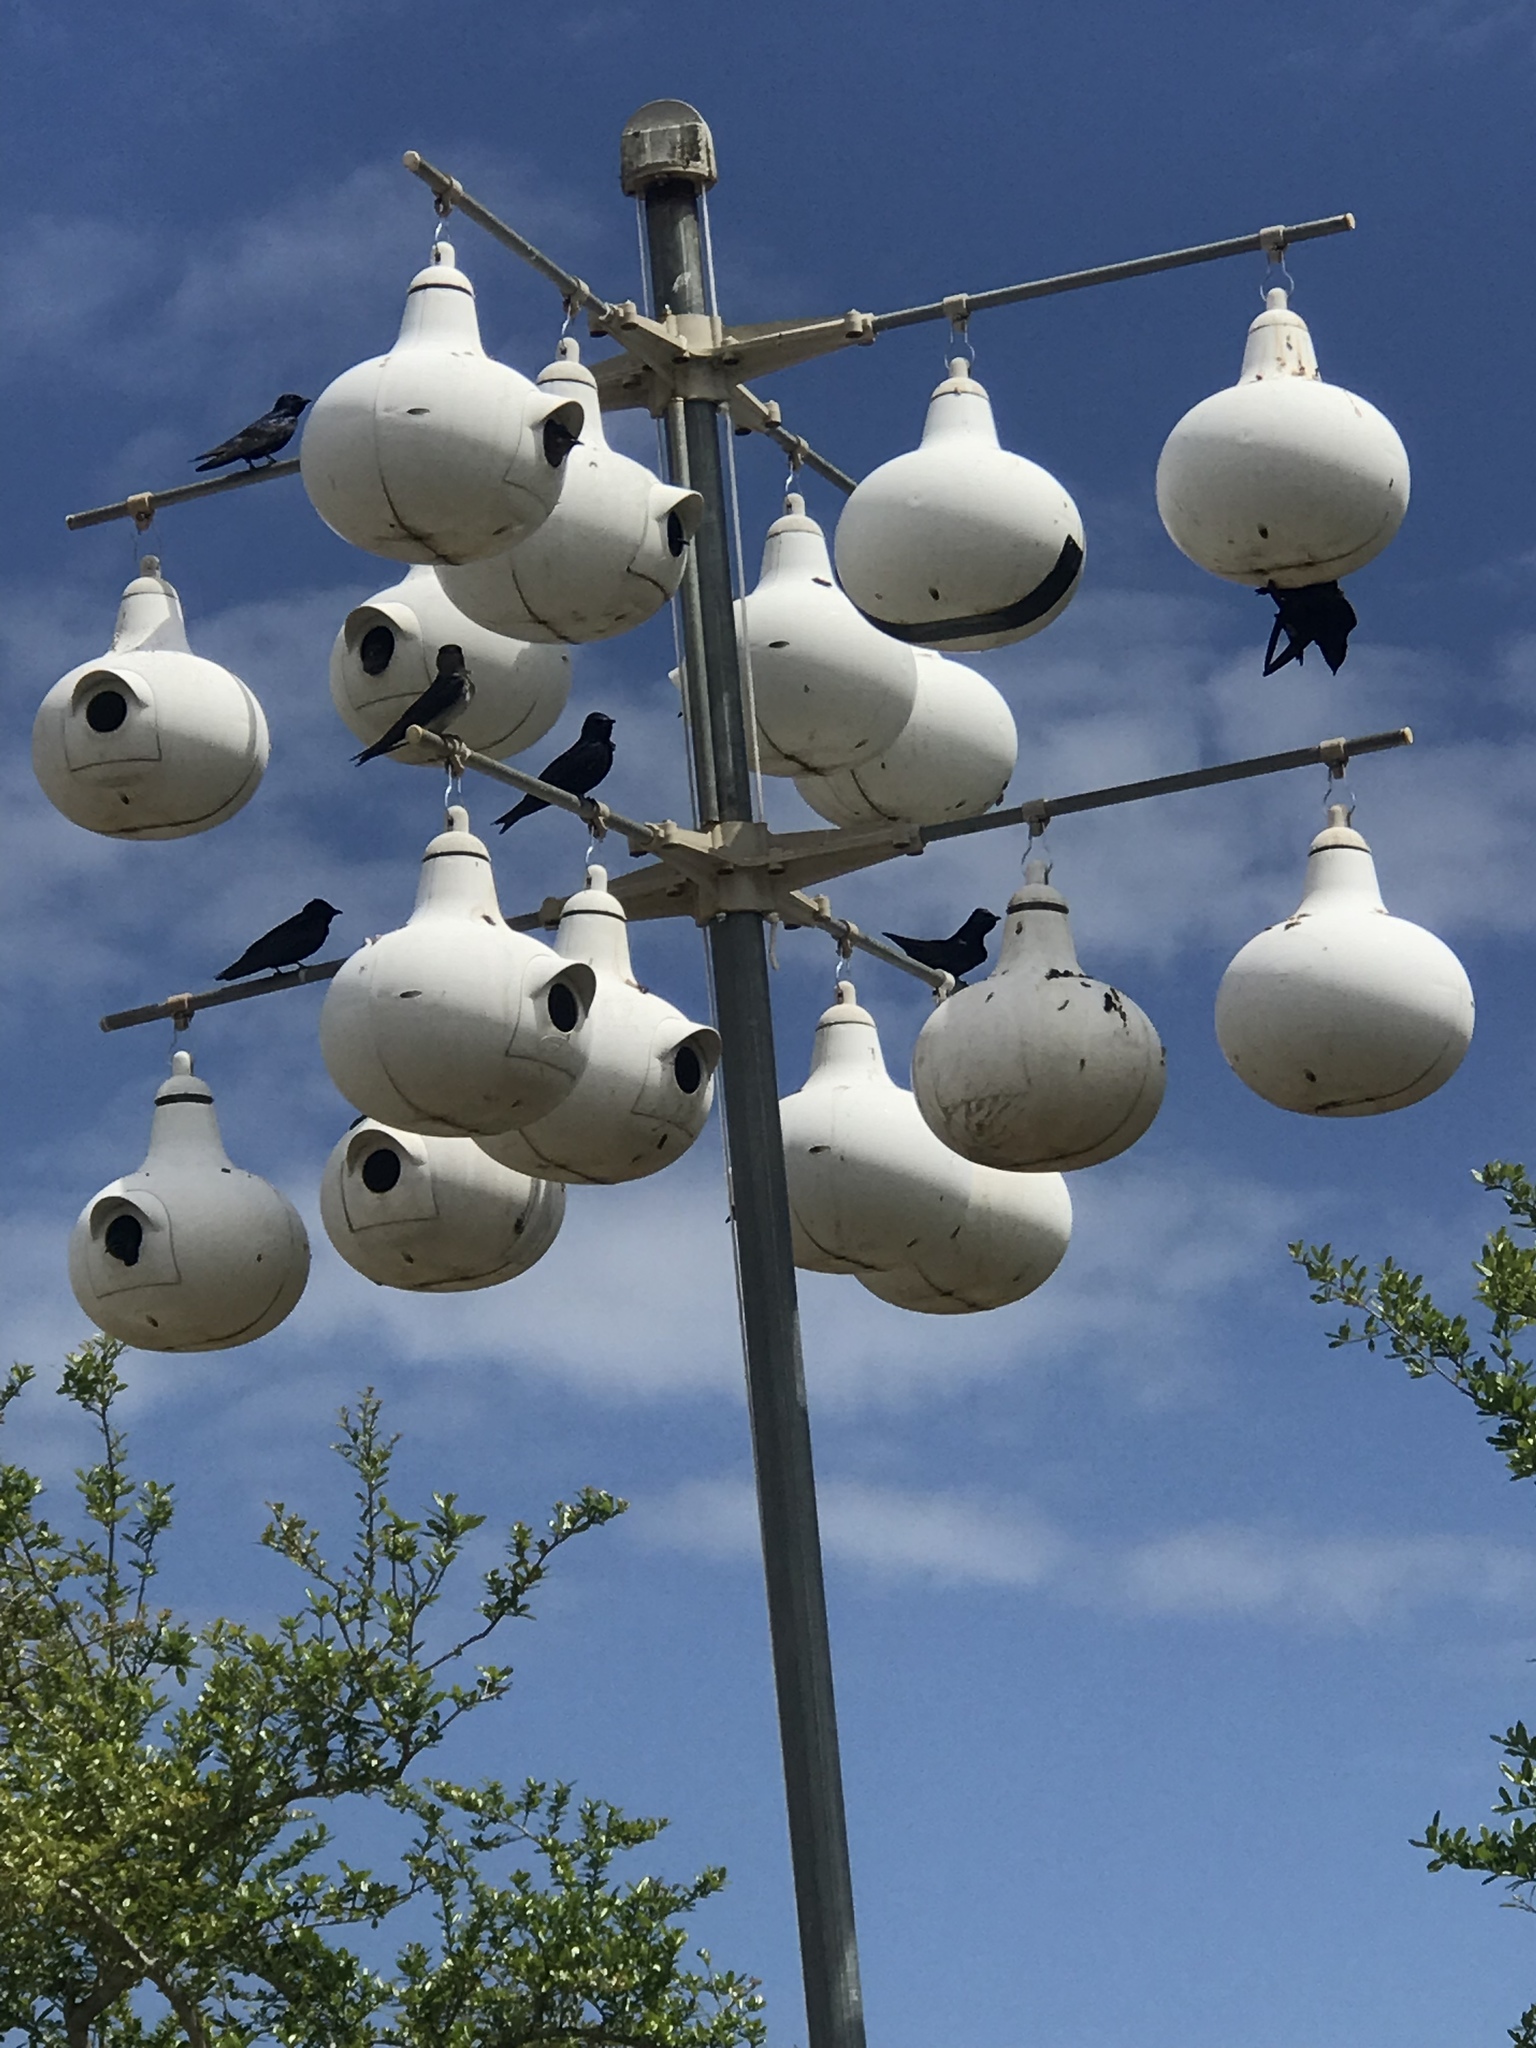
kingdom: Animalia
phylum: Chordata
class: Aves
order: Passeriformes
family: Hirundinidae
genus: Progne
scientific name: Progne subis
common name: Purple martin
